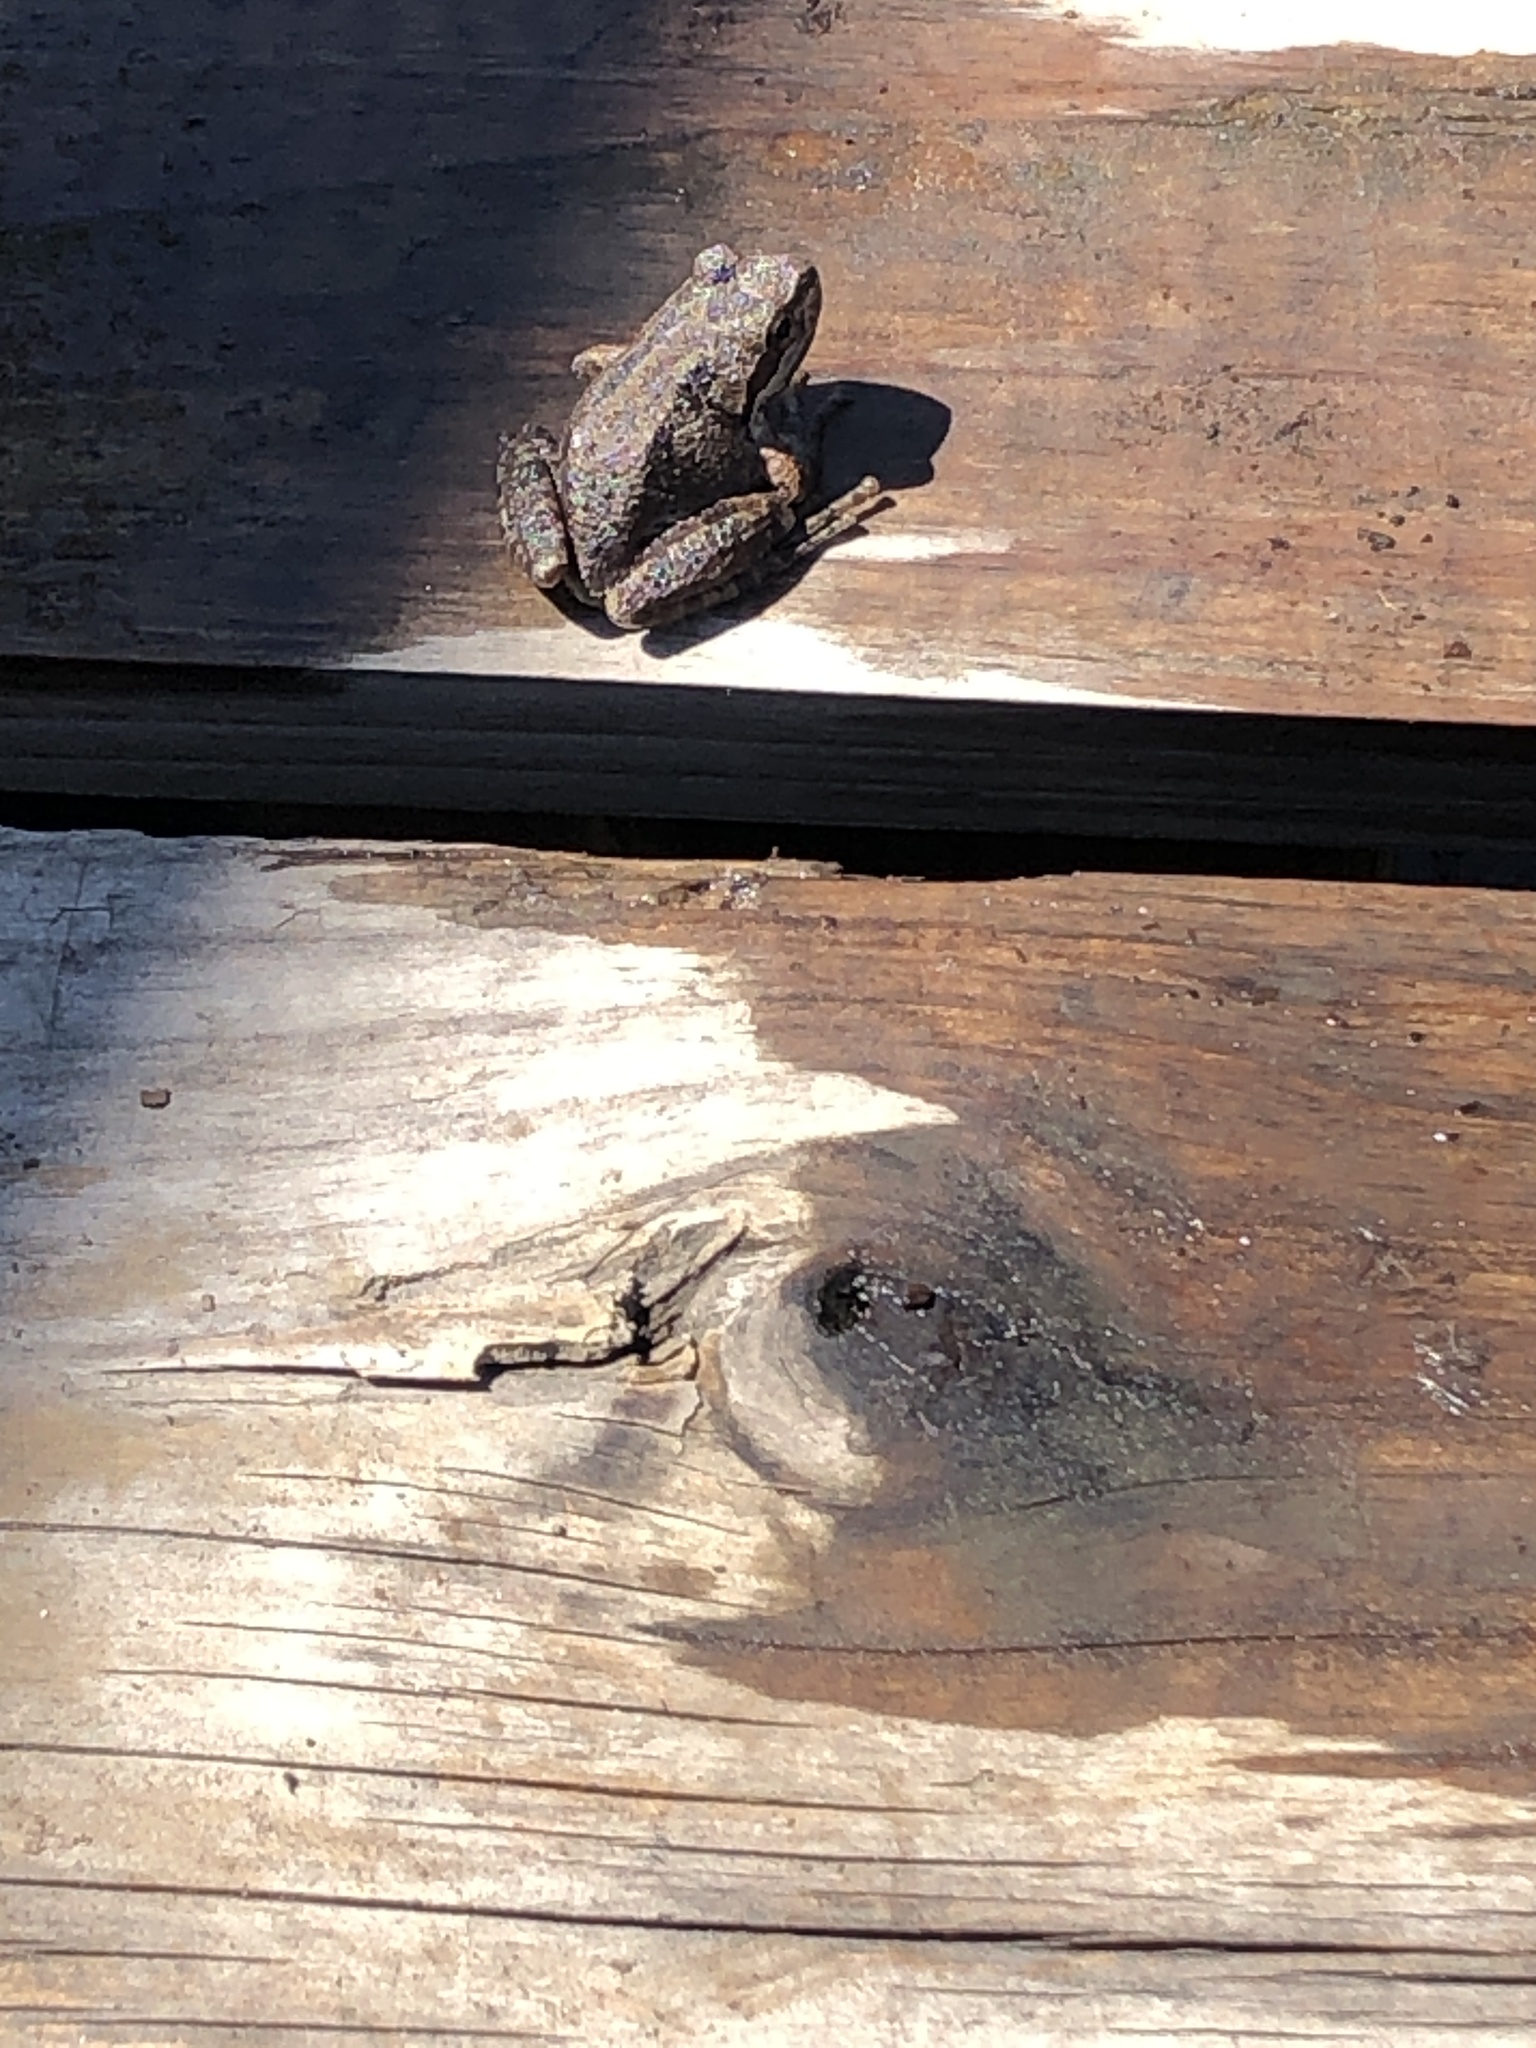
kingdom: Animalia
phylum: Chordata
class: Amphibia
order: Anura
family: Hylidae
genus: Pseudacris
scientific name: Pseudacris regilla
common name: Pacific chorus frog
